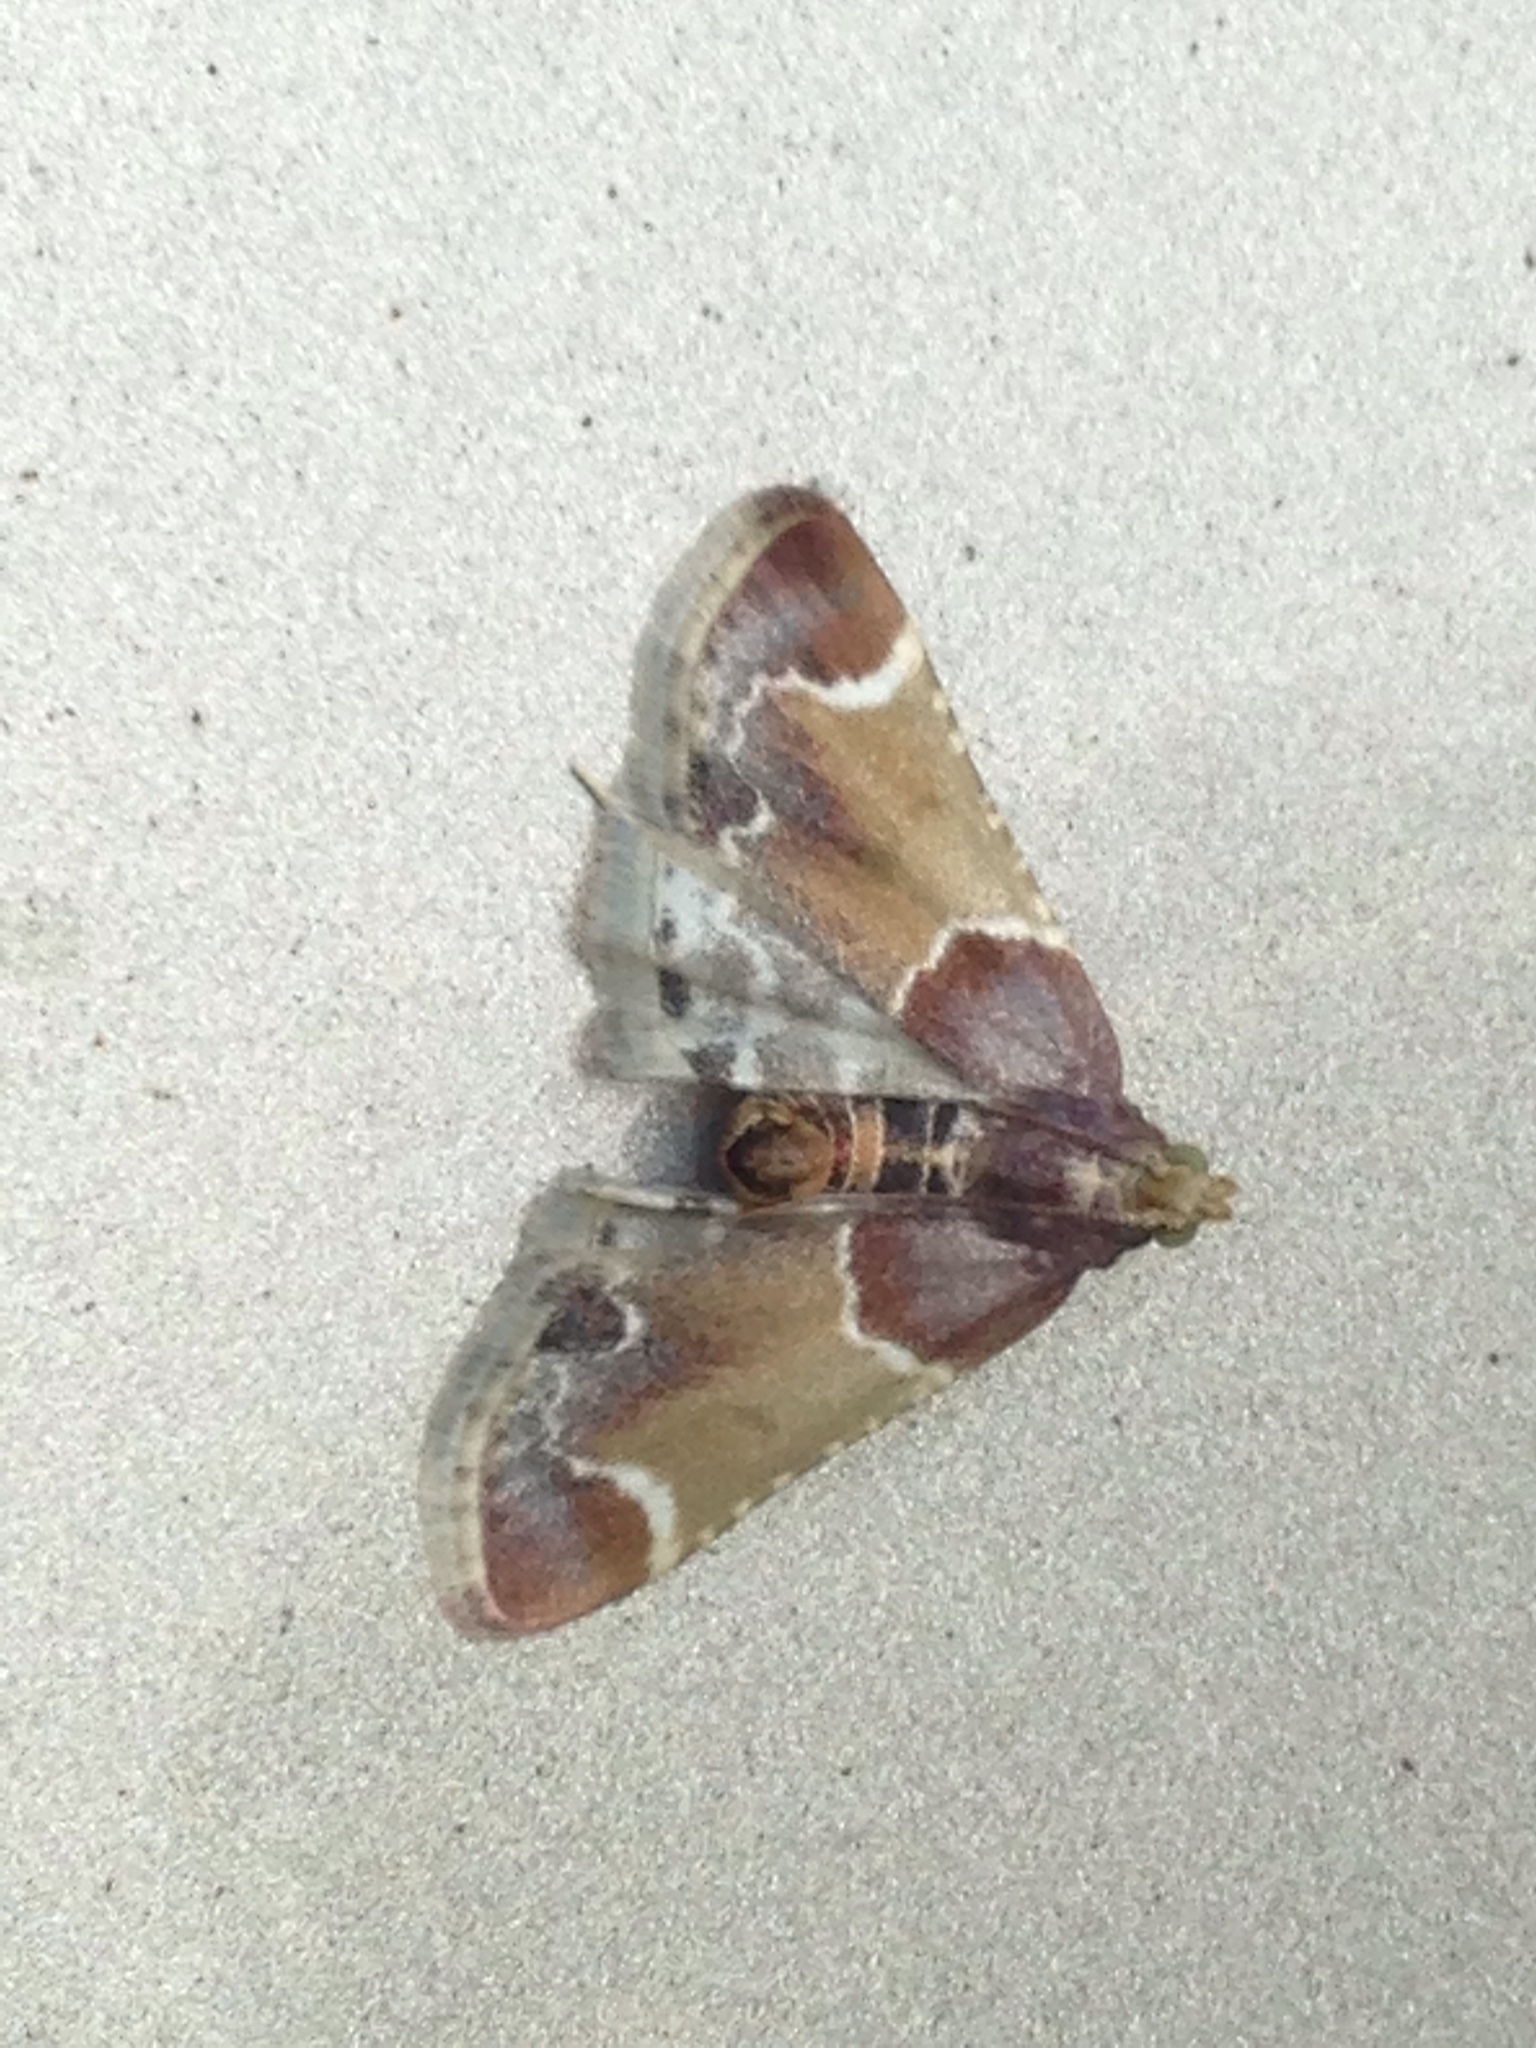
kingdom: Animalia
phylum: Arthropoda
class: Insecta
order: Lepidoptera
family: Pyralidae
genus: Pyralis
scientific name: Pyralis farinalis
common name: Meal moth
